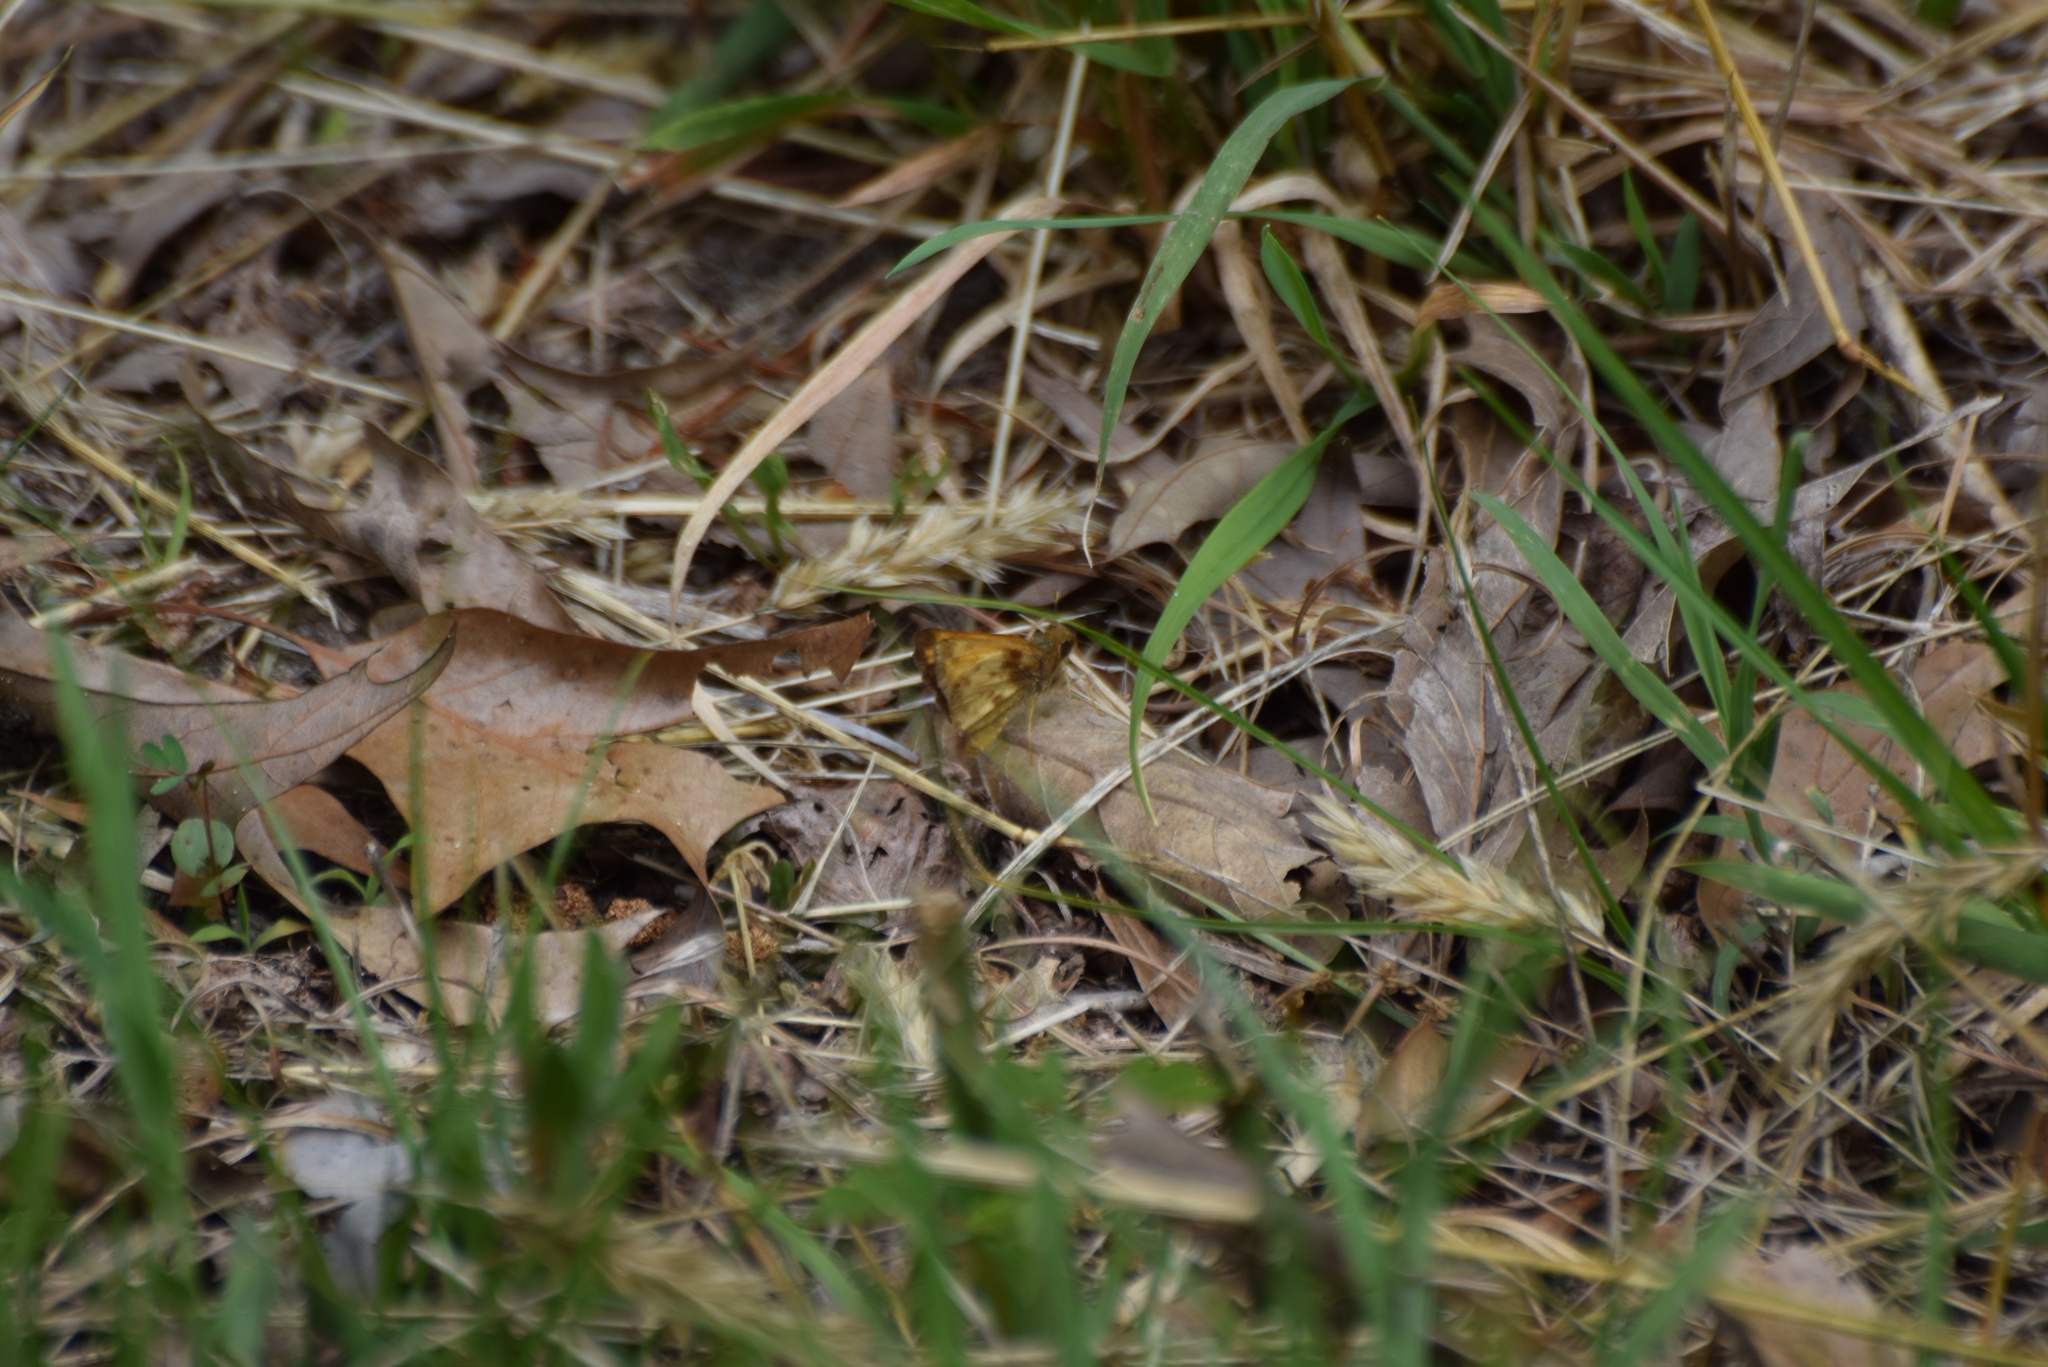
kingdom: Animalia
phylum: Arthropoda
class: Insecta
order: Lepidoptera
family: Hesperiidae
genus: Lon
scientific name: Lon zabulon
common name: Zabulon skipper
